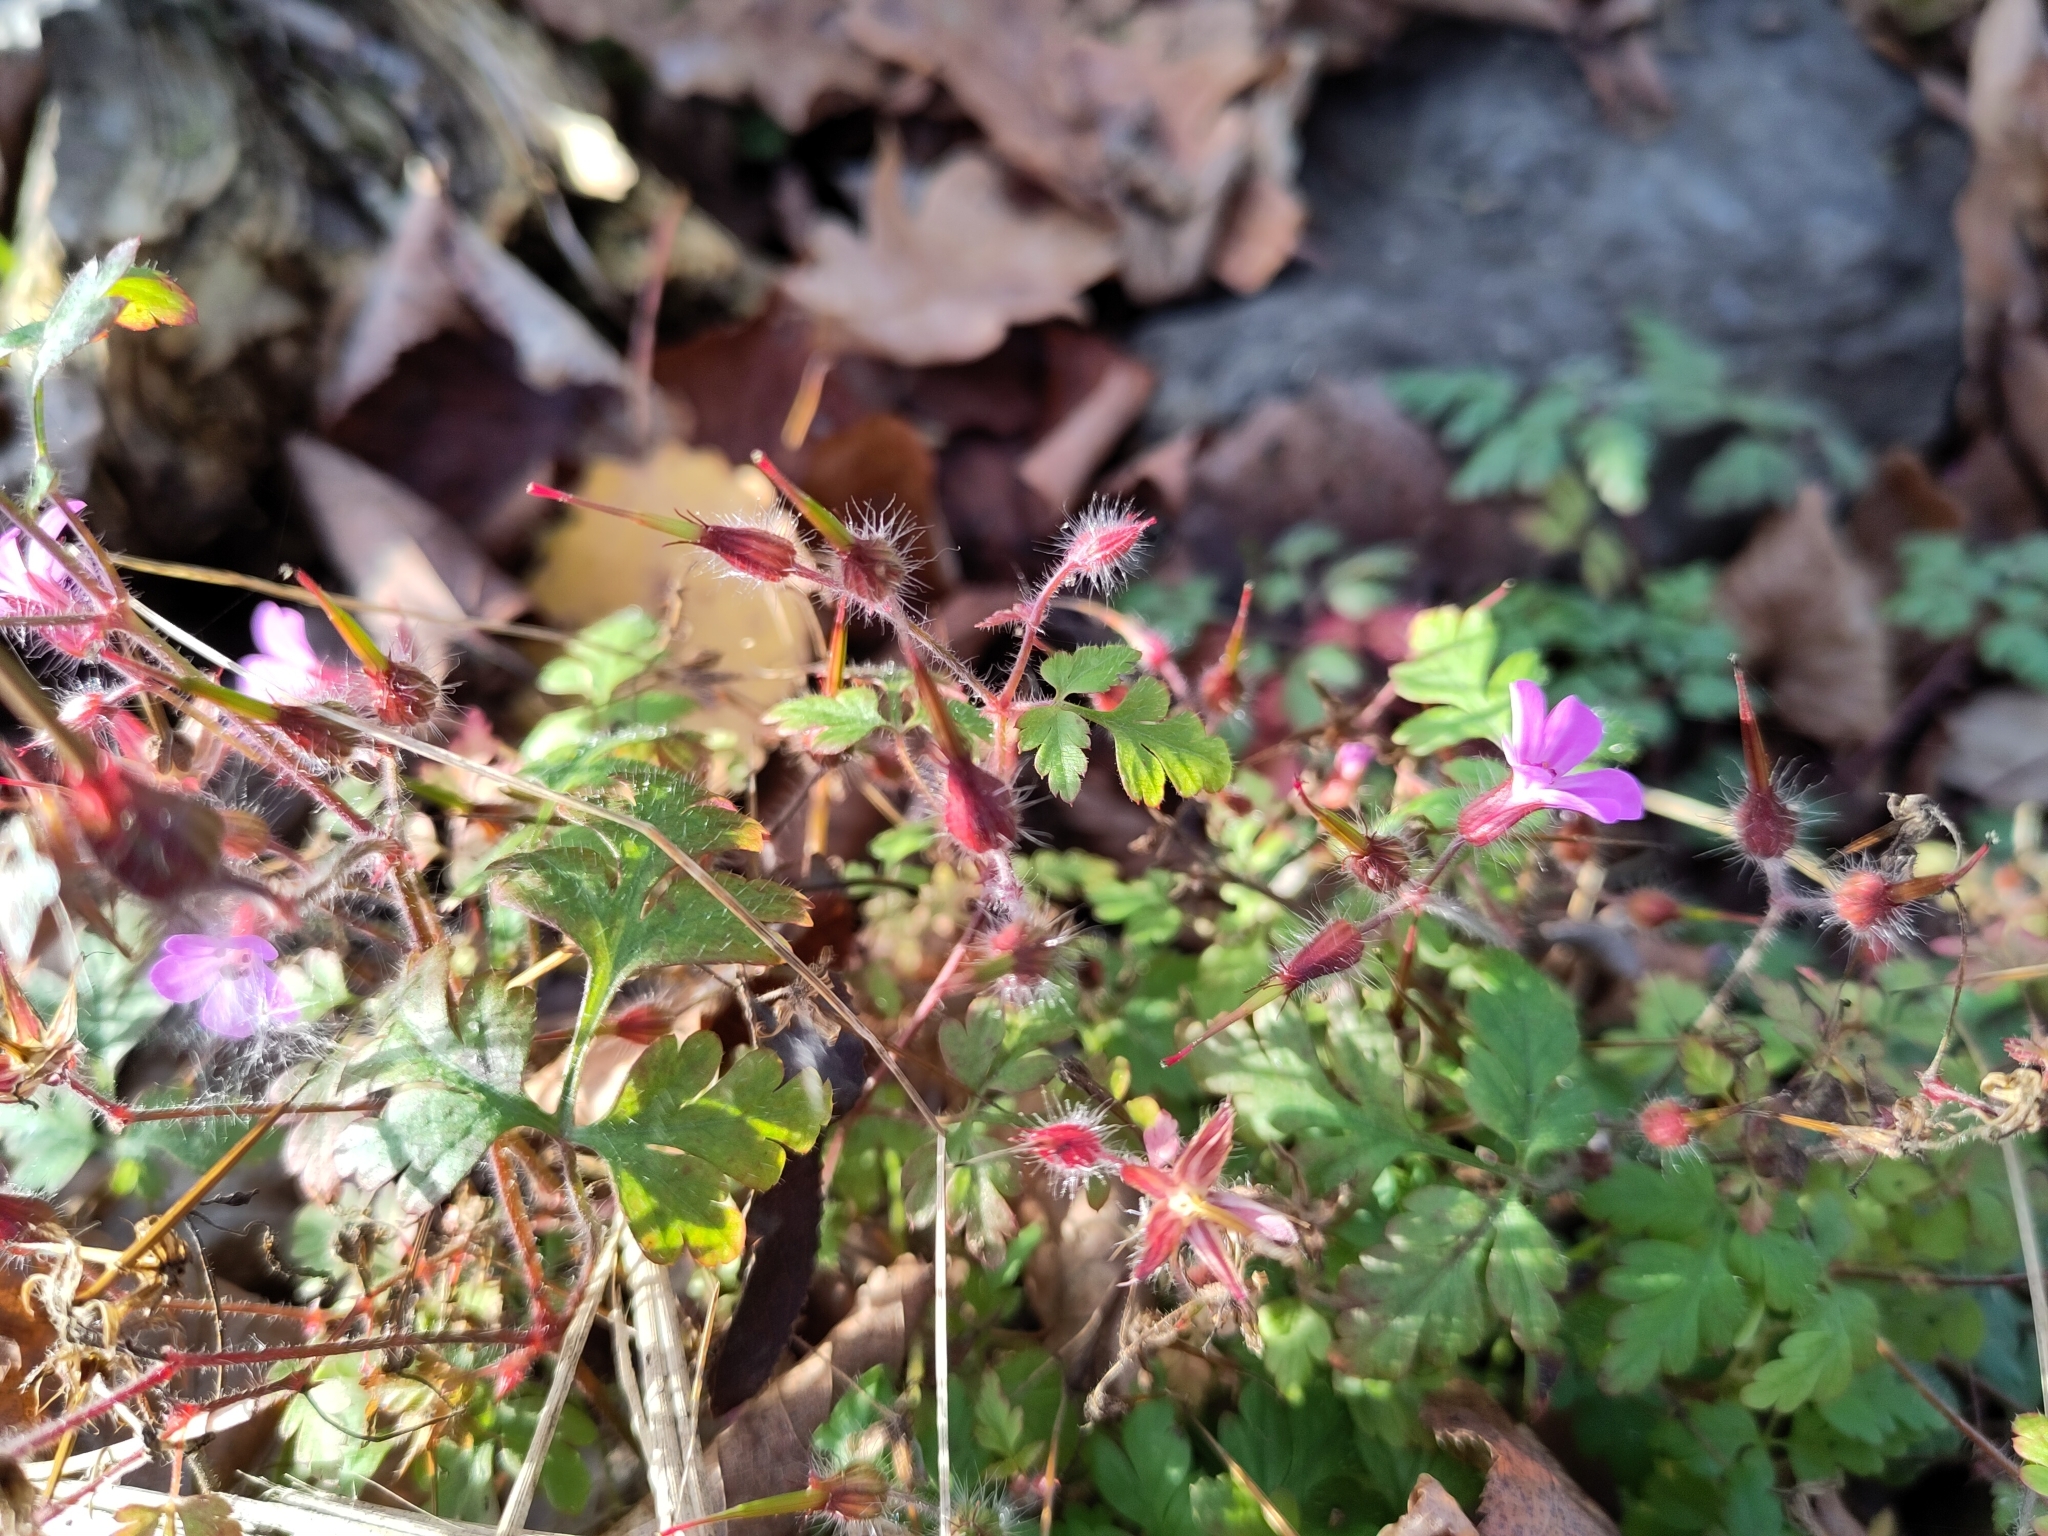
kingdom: Plantae
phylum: Tracheophyta
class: Magnoliopsida
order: Geraniales
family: Geraniaceae
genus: Geranium
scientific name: Geranium robertianum
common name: Herb-robert
